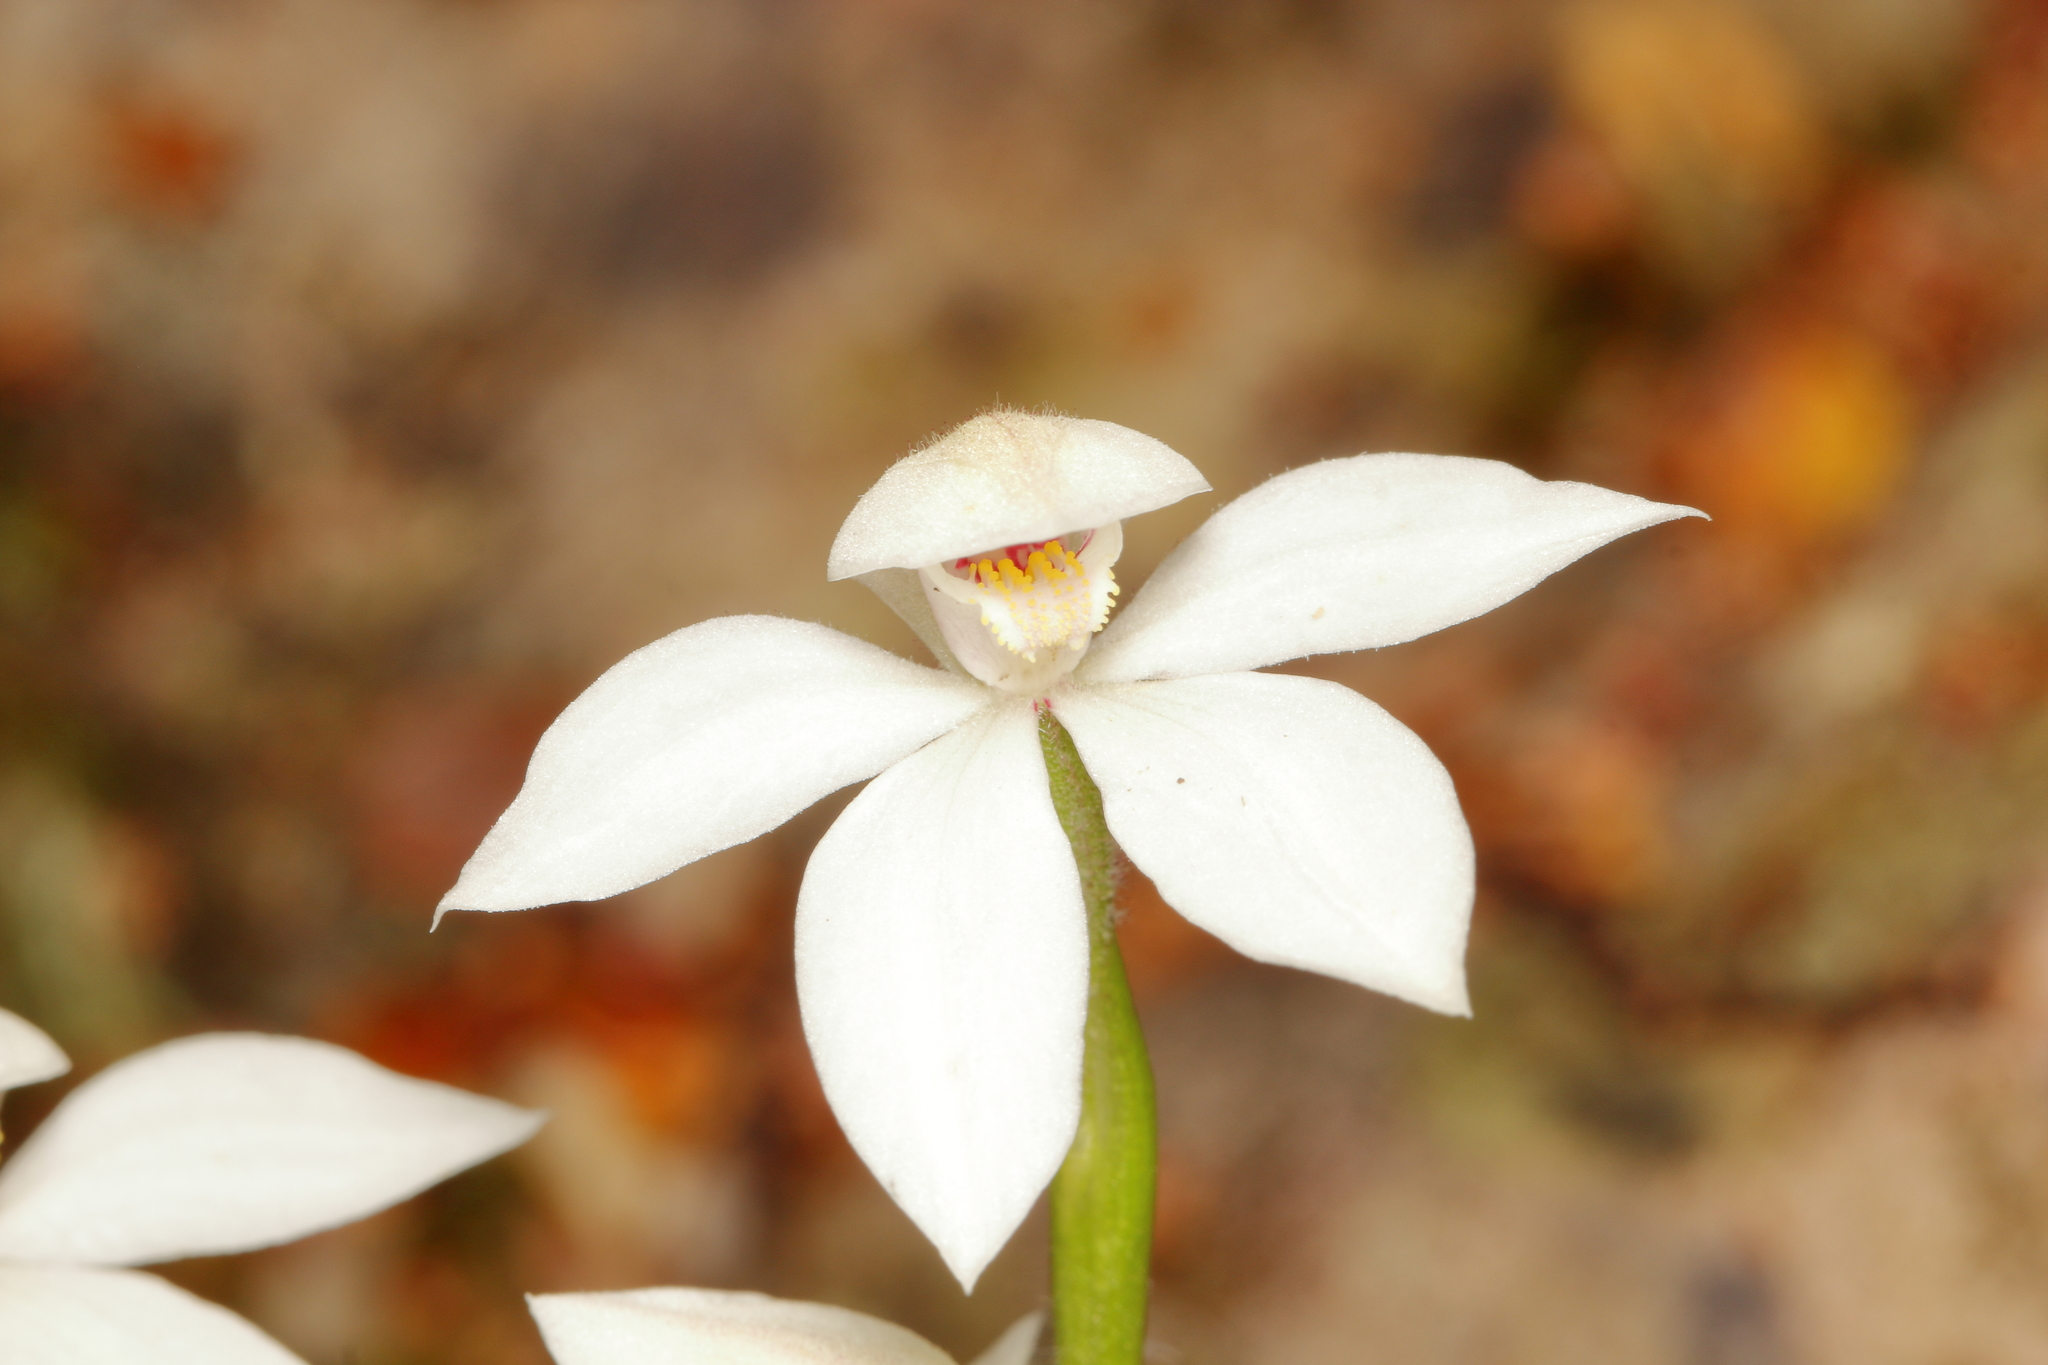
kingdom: Plantae
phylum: Tracheophyta
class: Liliopsida
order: Asparagales
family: Orchidaceae
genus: Caladenia
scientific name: Caladenia lyallii
